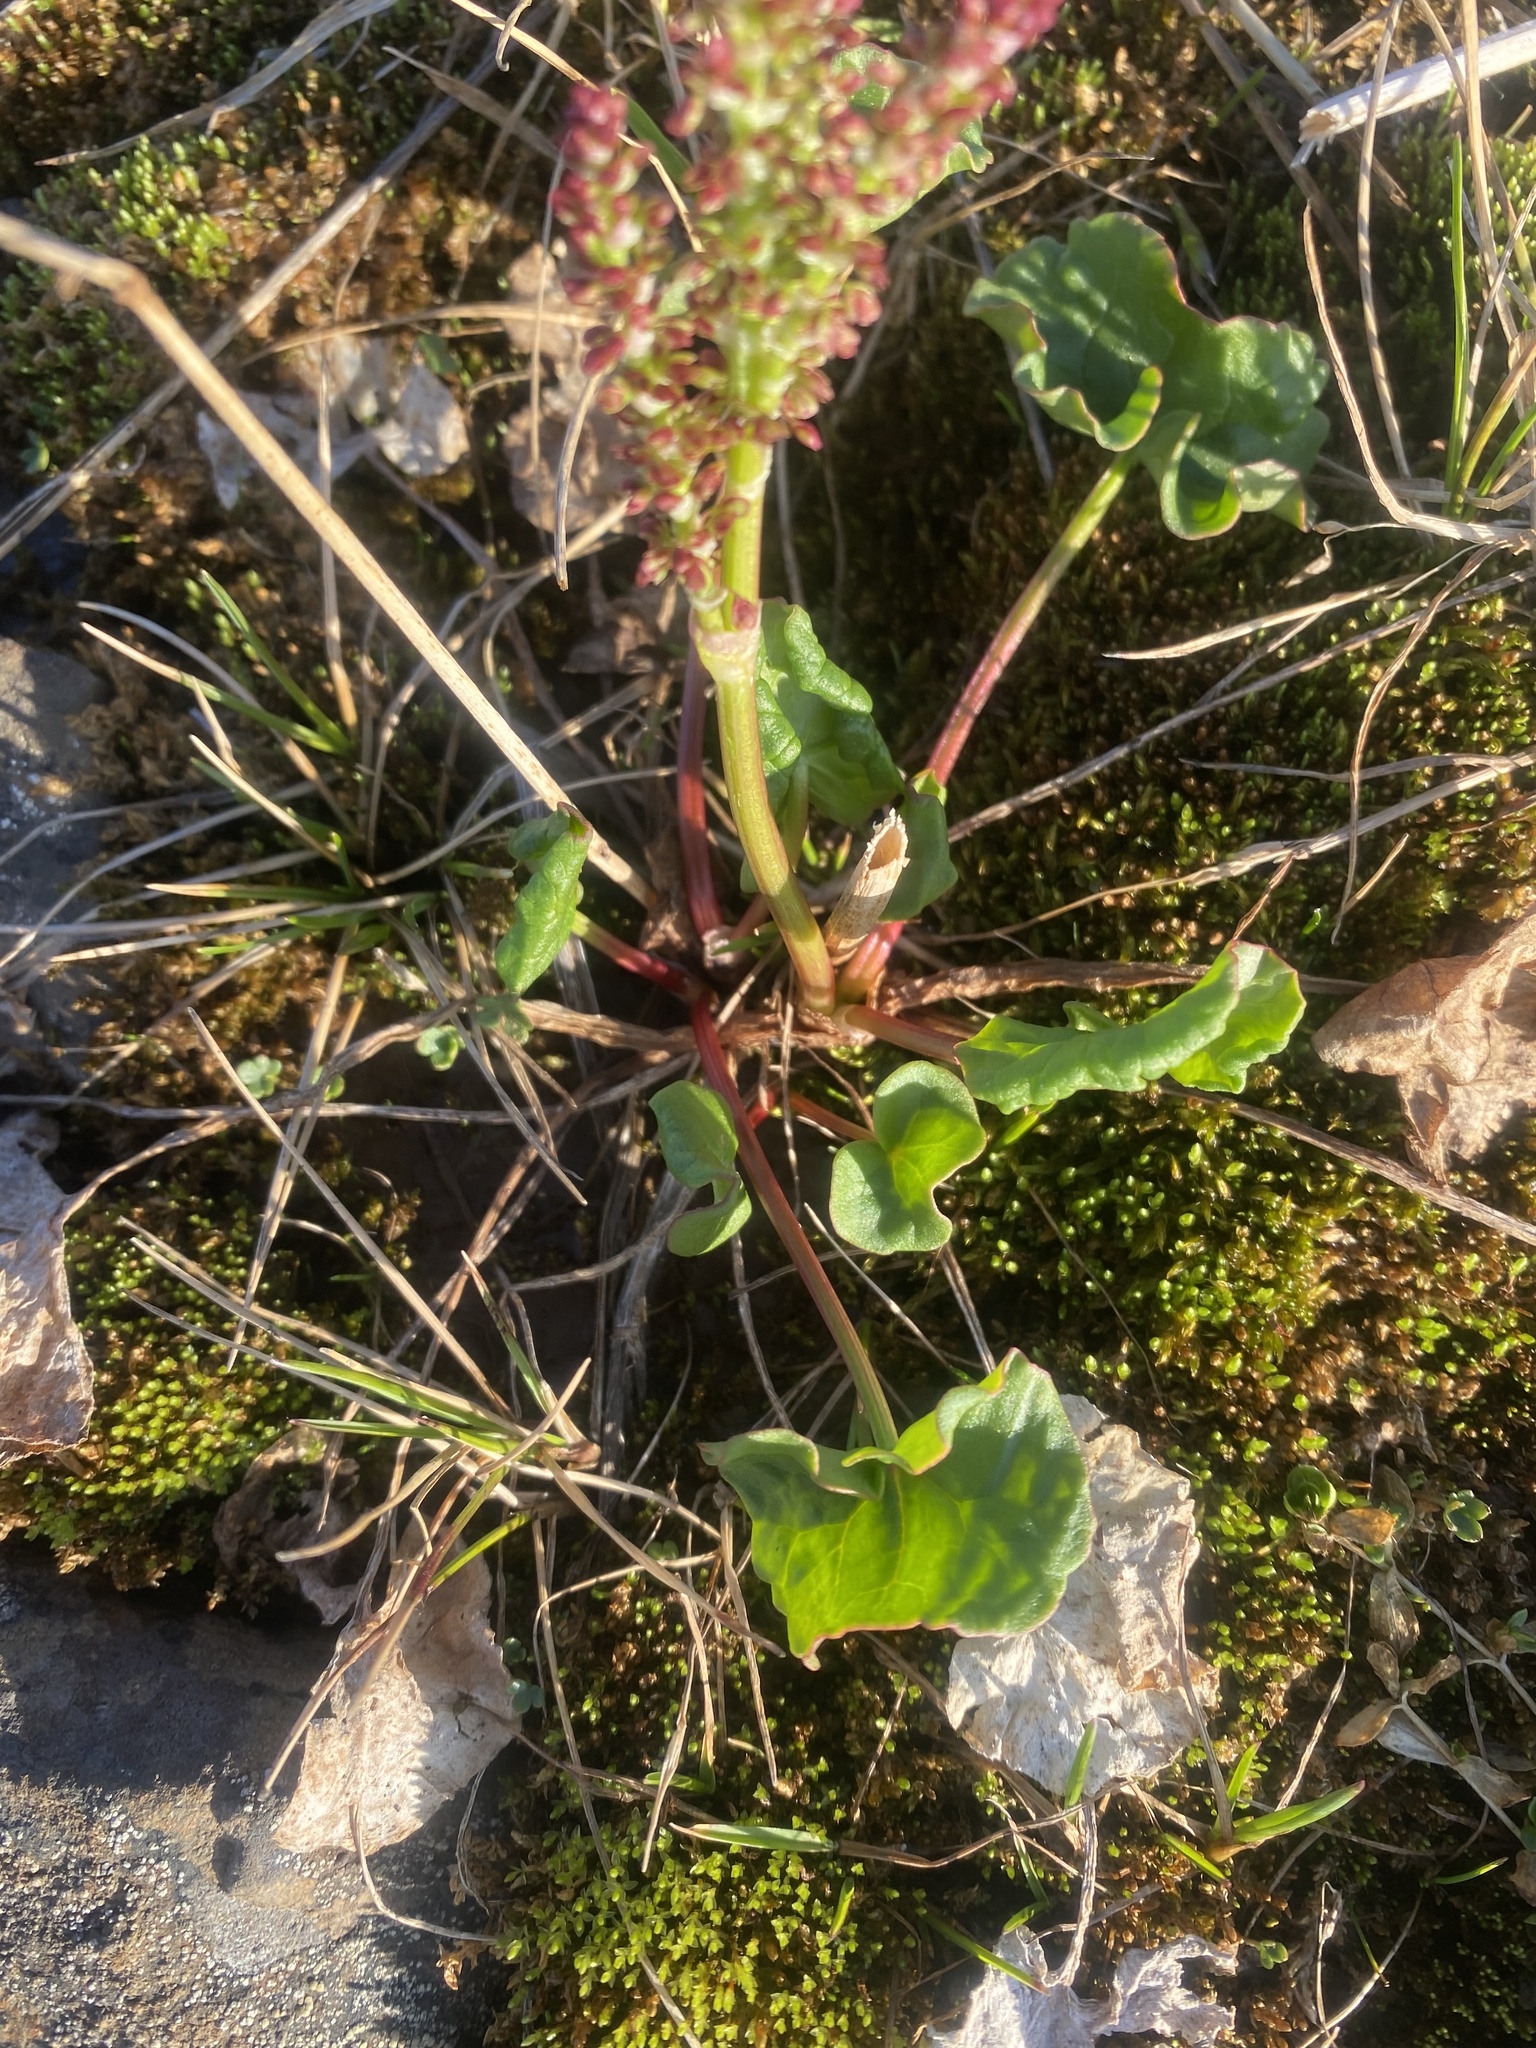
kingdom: Plantae
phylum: Tracheophyta
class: Magnoliopsida
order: Caryophyllales
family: Polygonaceae
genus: Oxyria
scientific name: Oxyria digyna
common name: Alpine mountain-sorrel
